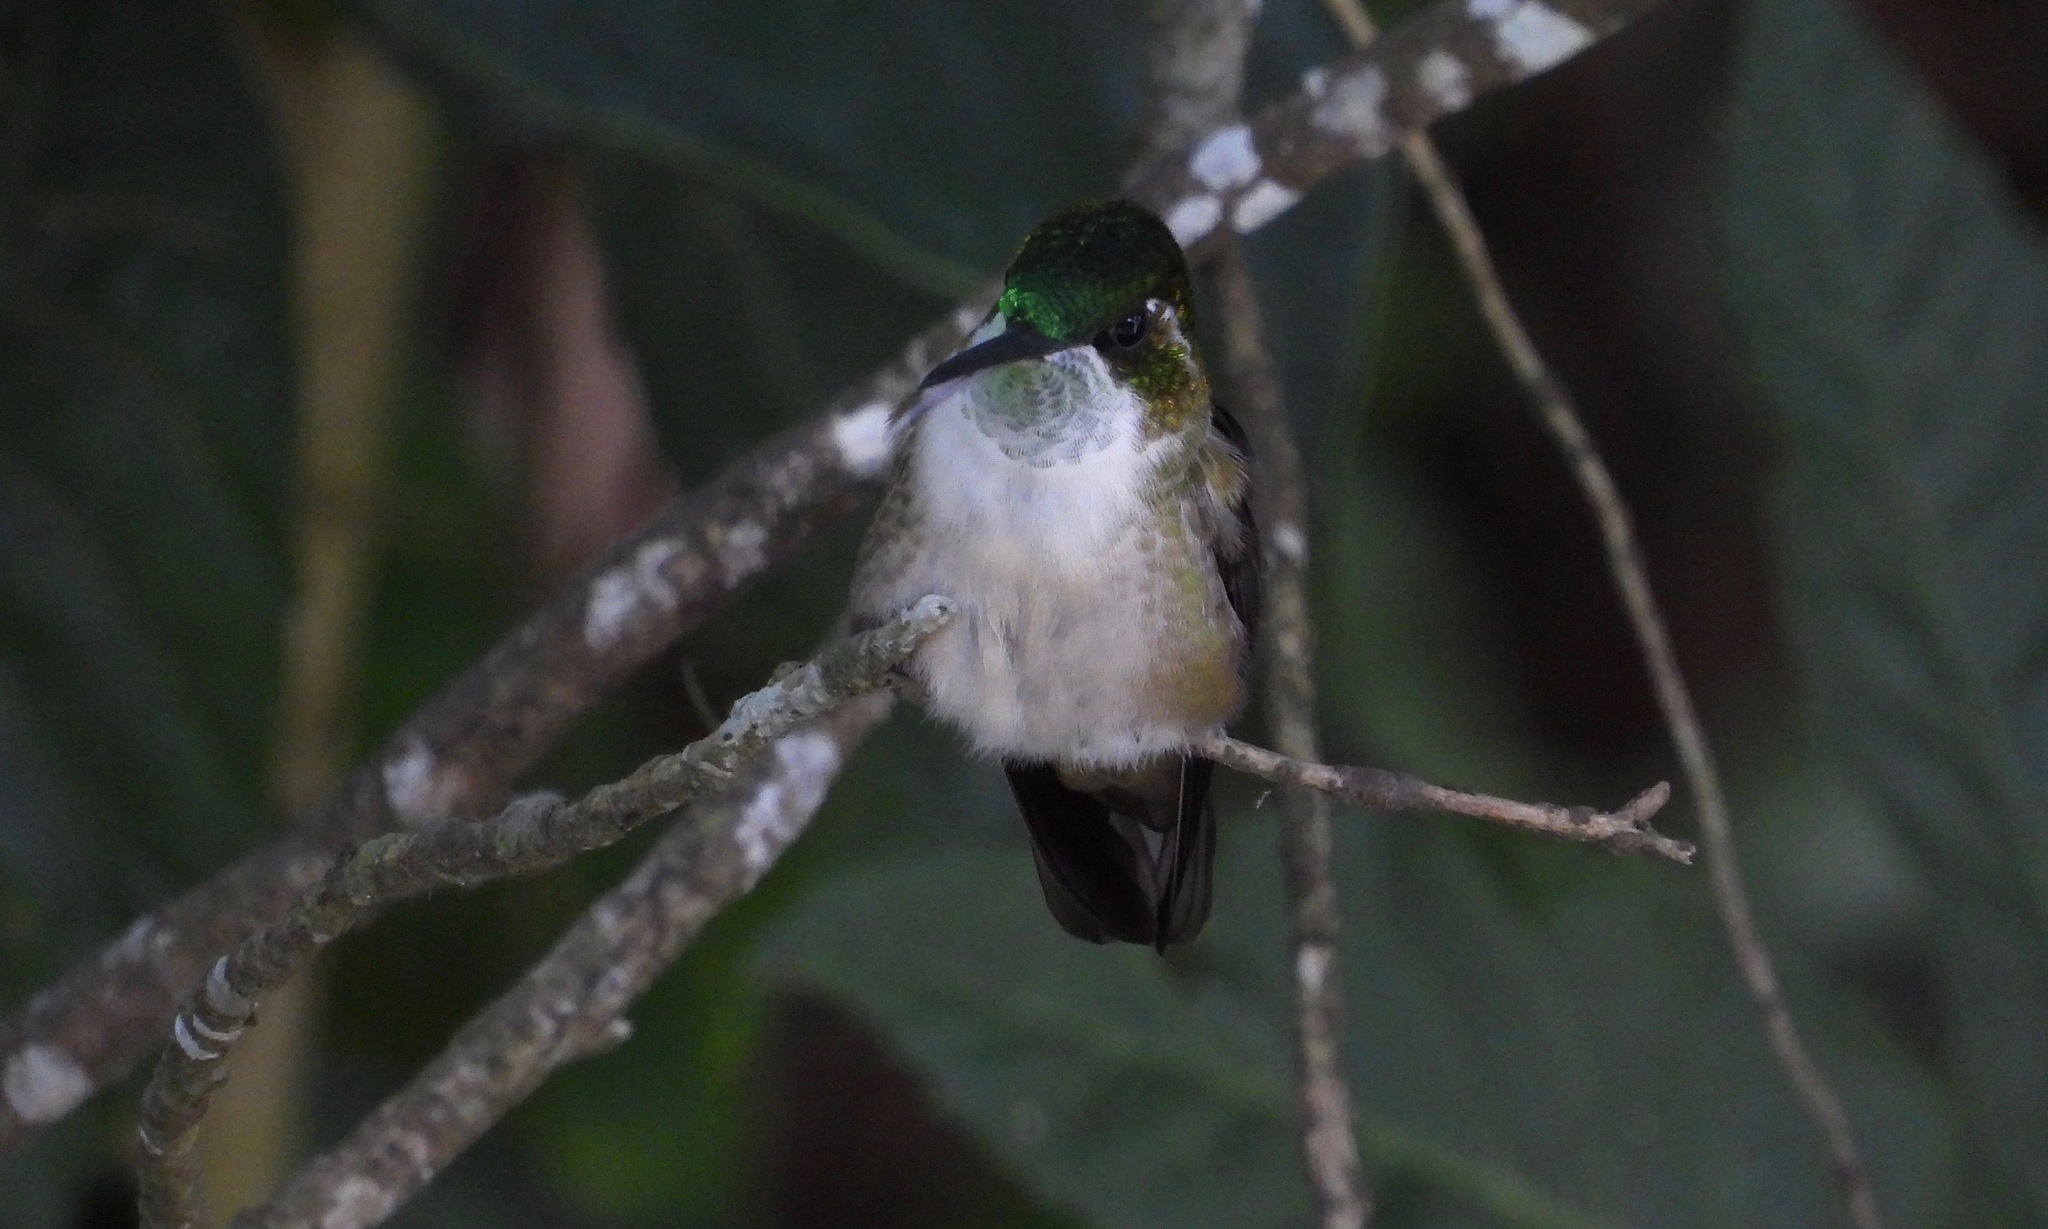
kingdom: Animalia
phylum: Chordata
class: Aves
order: Apodiformes
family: Trochilidae
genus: Lampornis
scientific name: Lampornis viridipallens
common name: Green-throated mountain-gem
